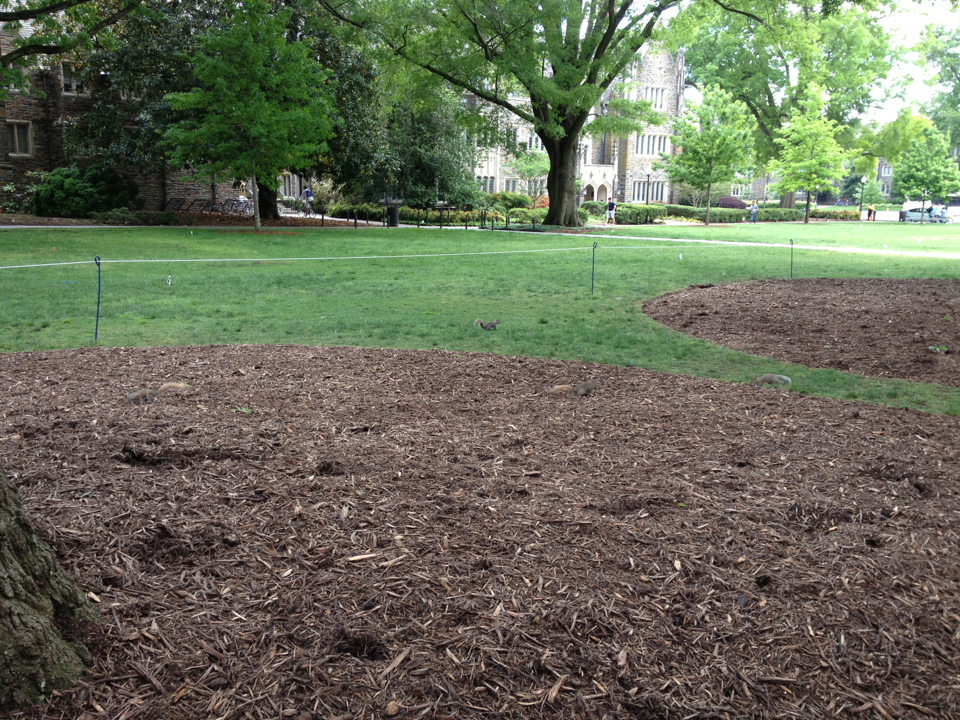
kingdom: Animalia
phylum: Chordata
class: Mammalia
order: Rodentia
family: Sciuridae
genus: Sciurus
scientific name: Sciurus carolinensis
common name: Eastern gray squirrel
